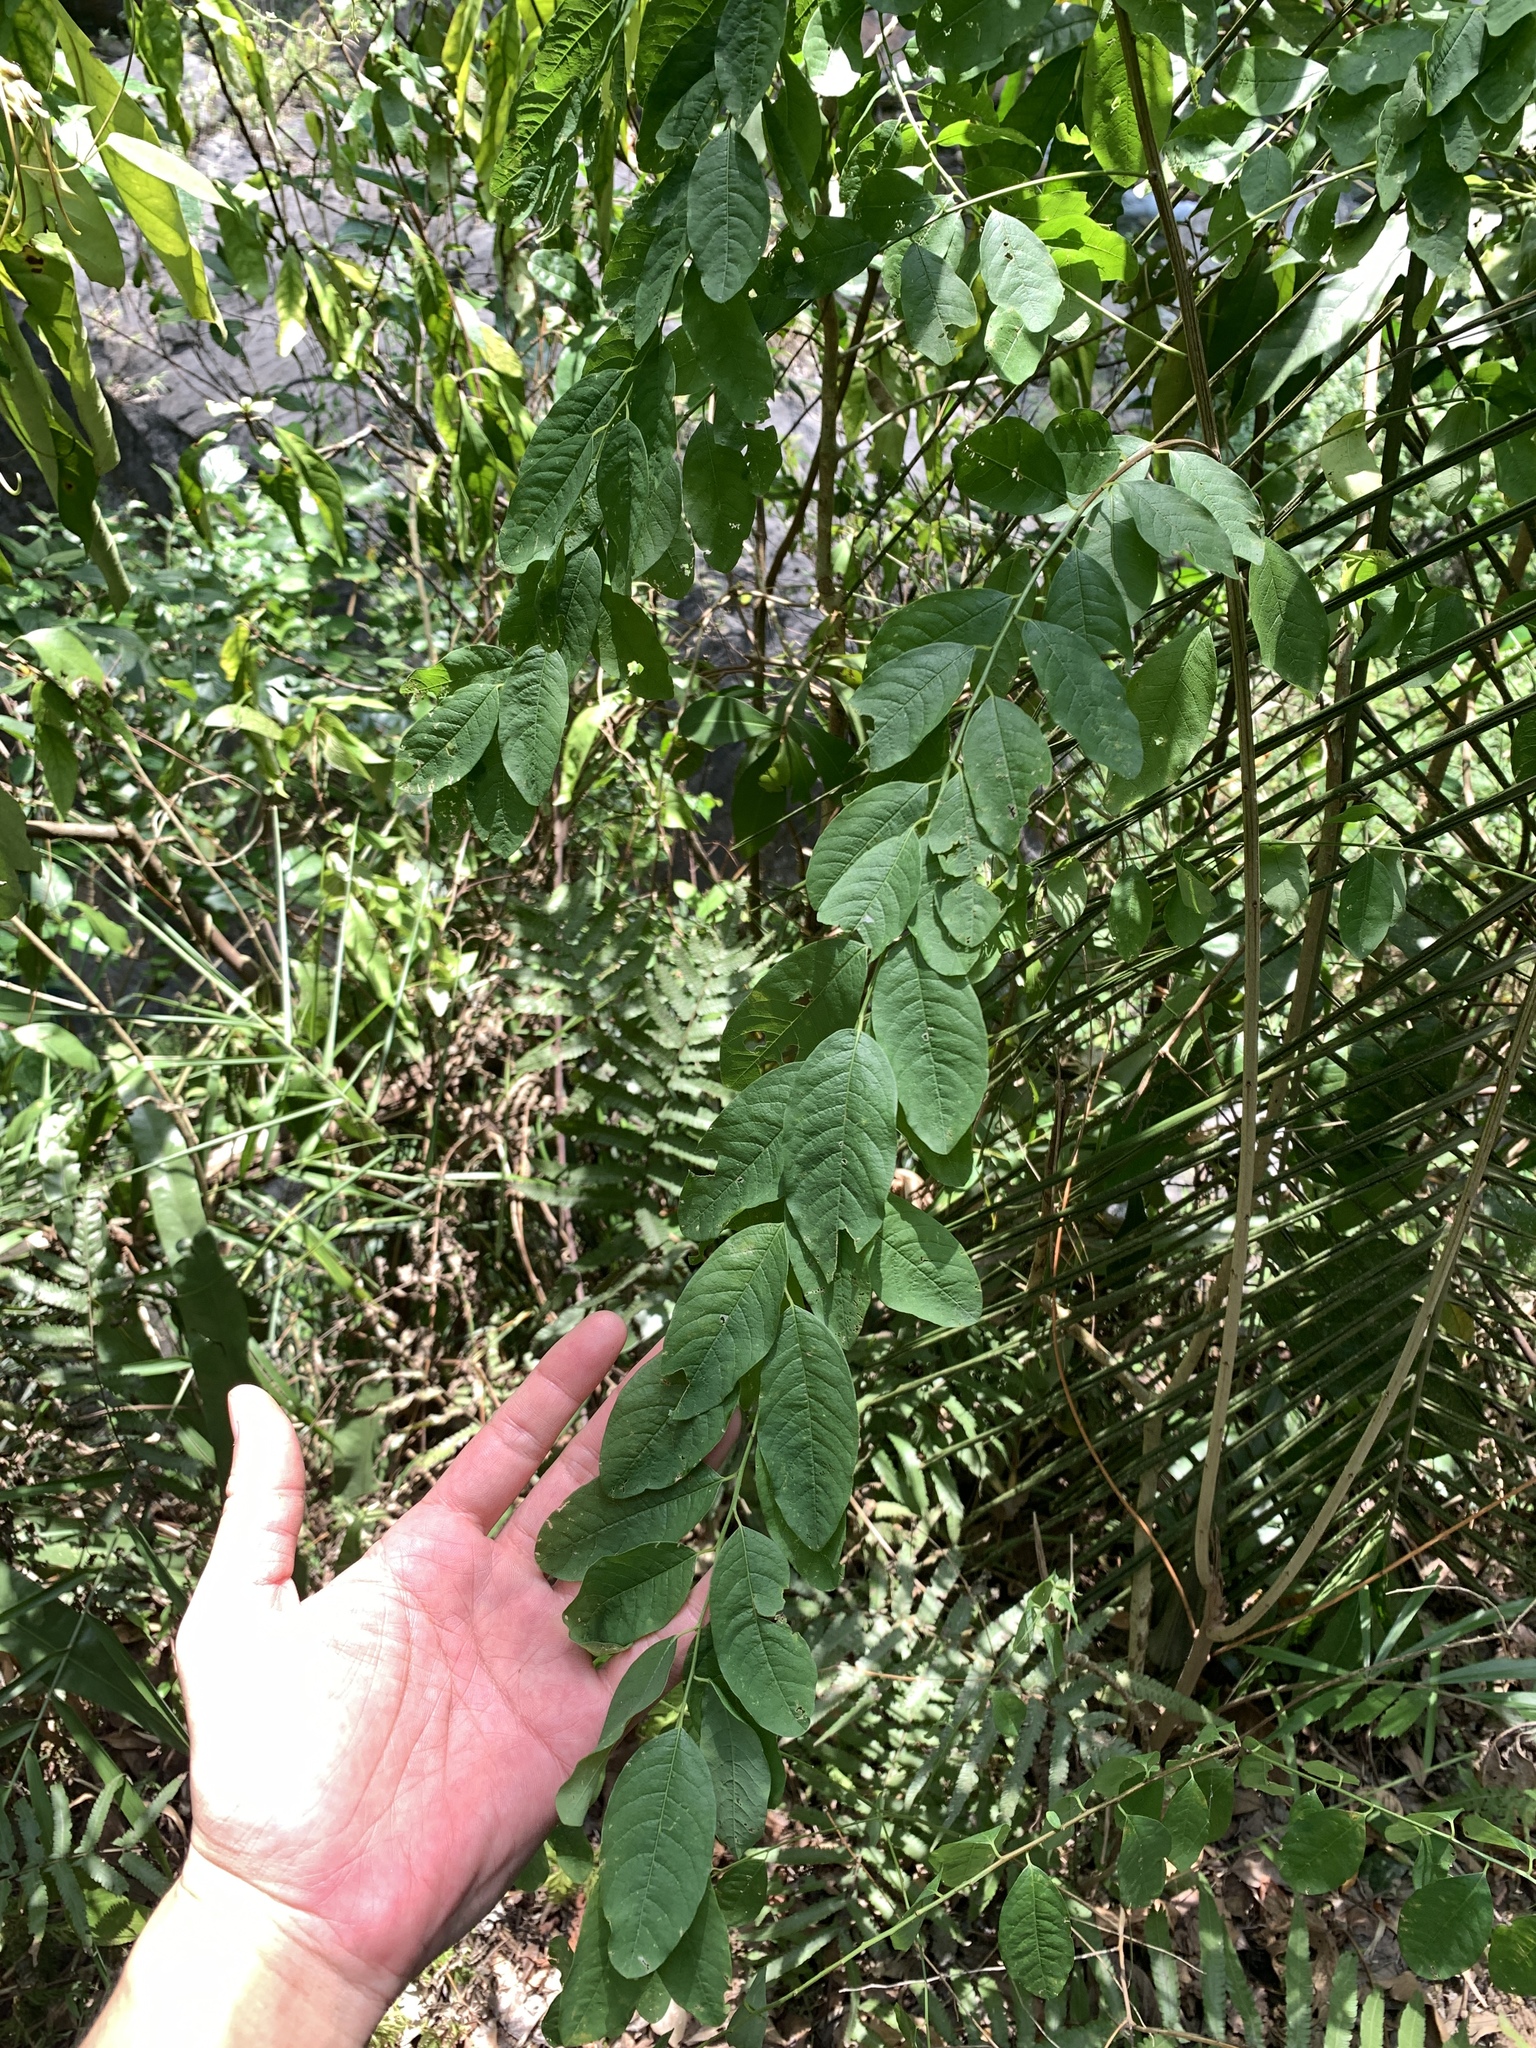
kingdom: Plantae
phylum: Tracheophyta
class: Magnoliopsida
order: Malpighiales
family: Phyllanthaceae
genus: Flueggea
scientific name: Flueggea suffruticosa
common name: Arching bushweed
